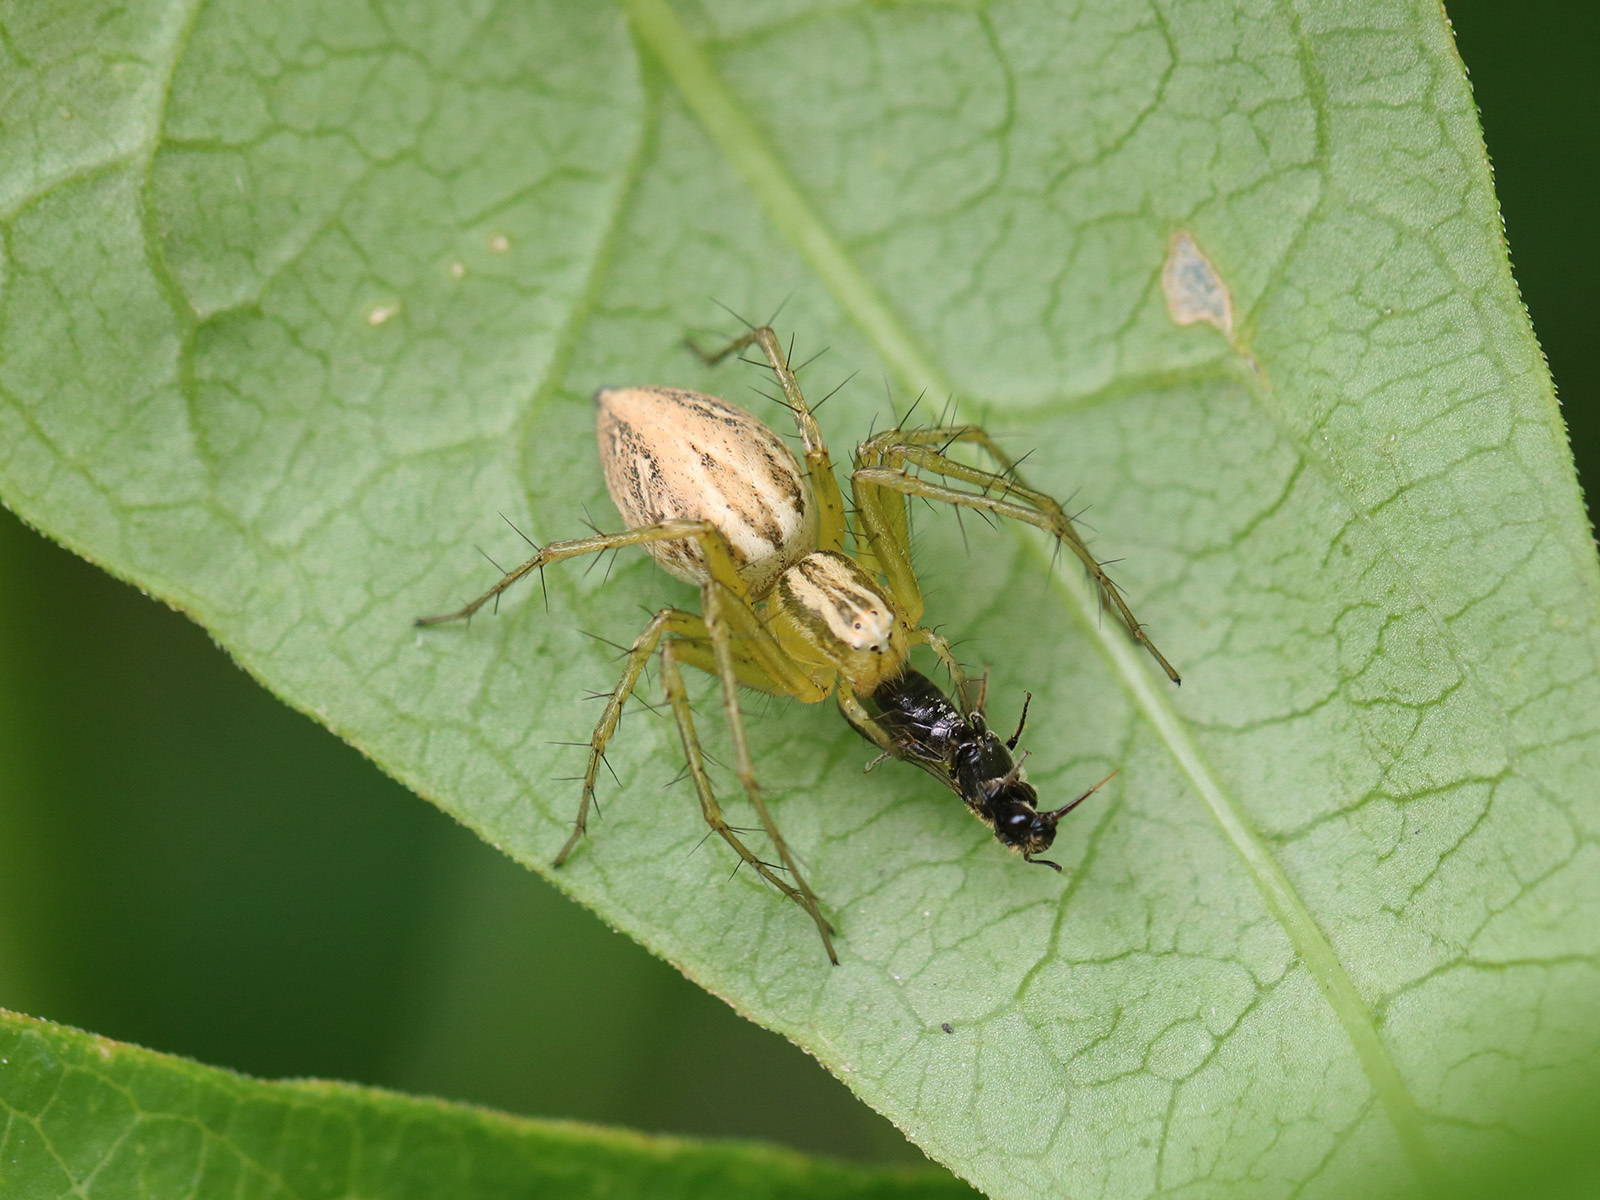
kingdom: Animalia
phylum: Arthropoda
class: Arachnida
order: Araneae
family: Oxyopidae
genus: Oxyopes
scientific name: Oxyopes lineatus
